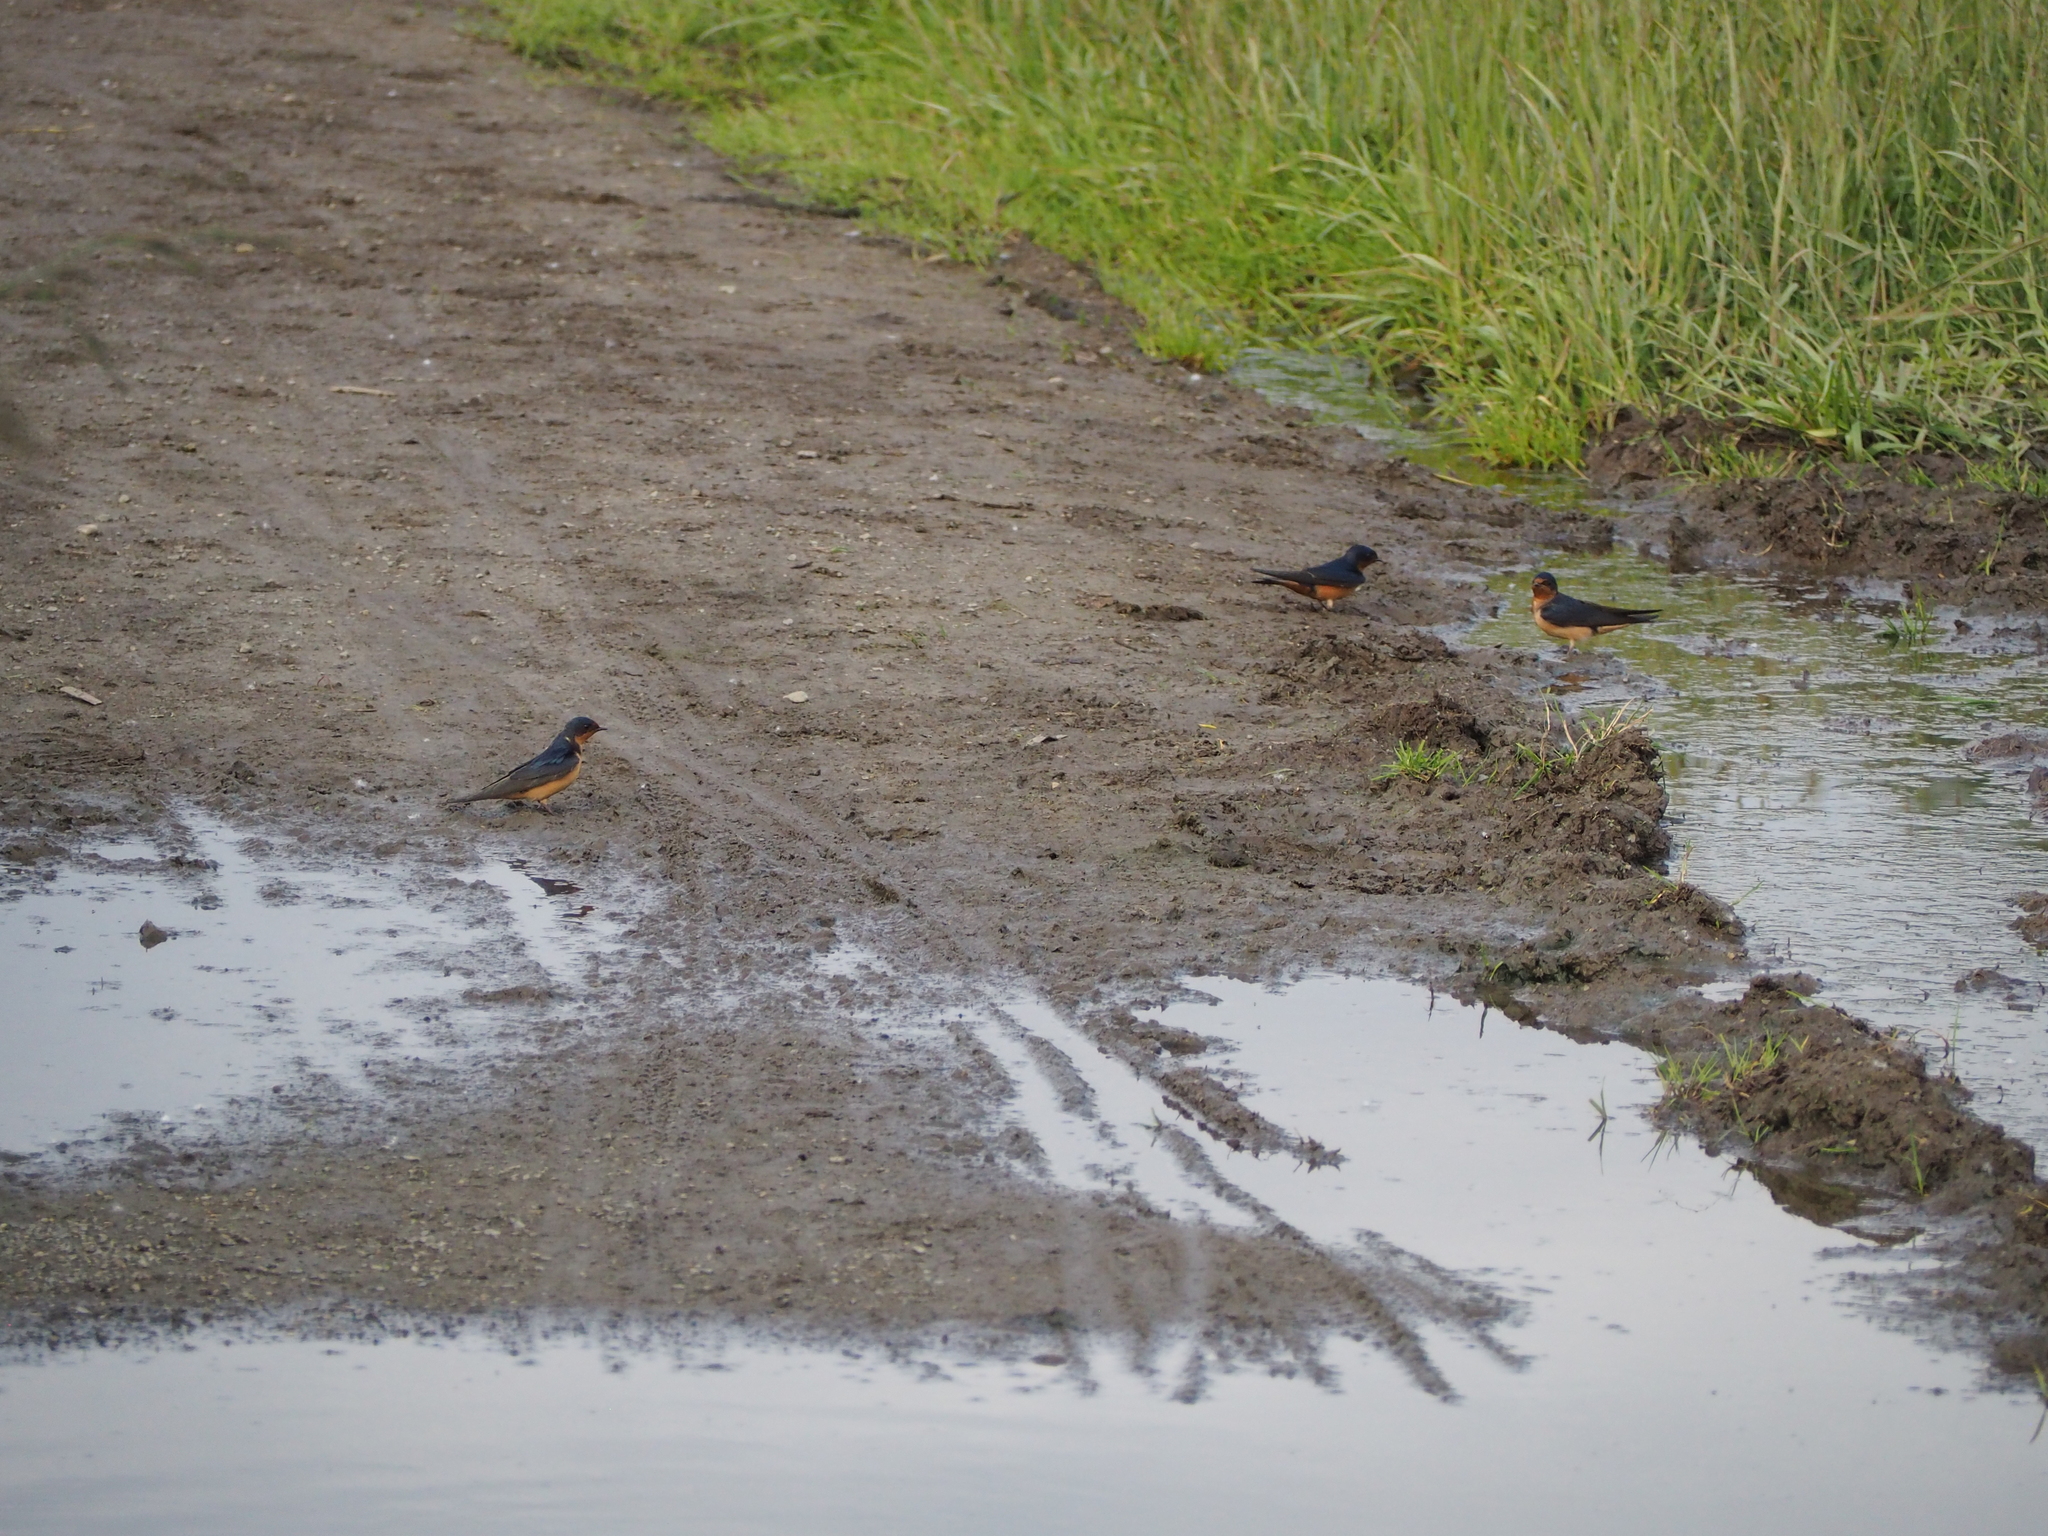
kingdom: Animalia
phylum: Chordata
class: Aves
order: Passeriformes
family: Hirundinidae
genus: Hirundo
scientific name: Hirundo rustica
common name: Barn swallow
